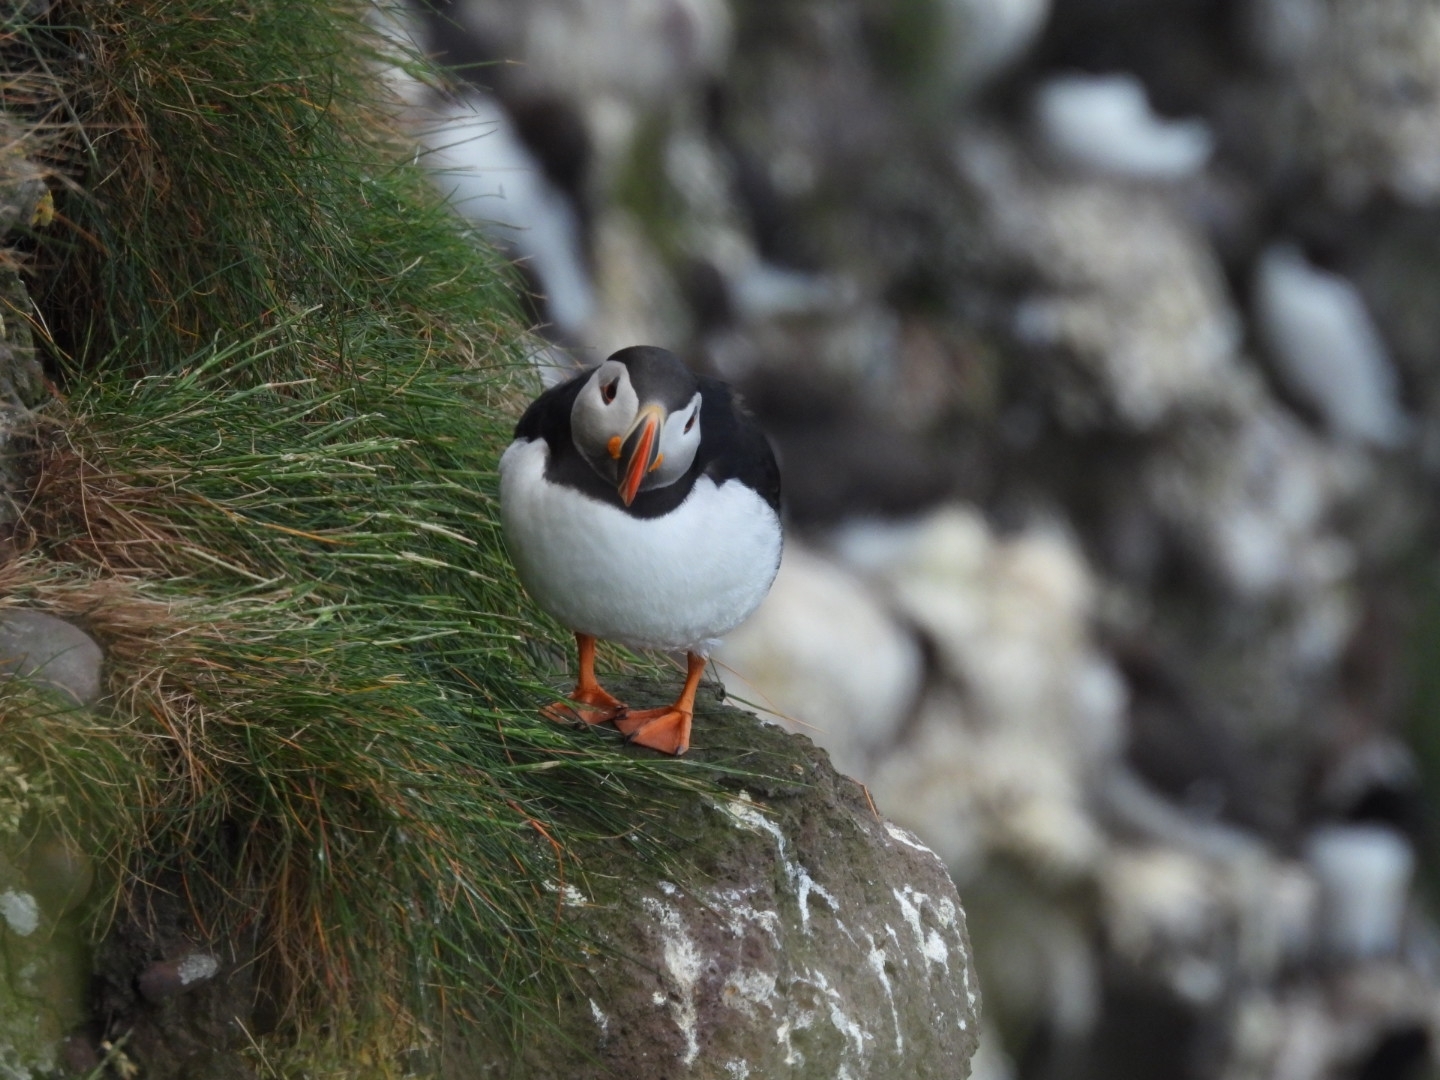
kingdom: Animalia
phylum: Chordata
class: Aves
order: Charadriiformes
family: Alcidae
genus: Fratercula
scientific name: Fratercula arctica
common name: Atlantic puffin
